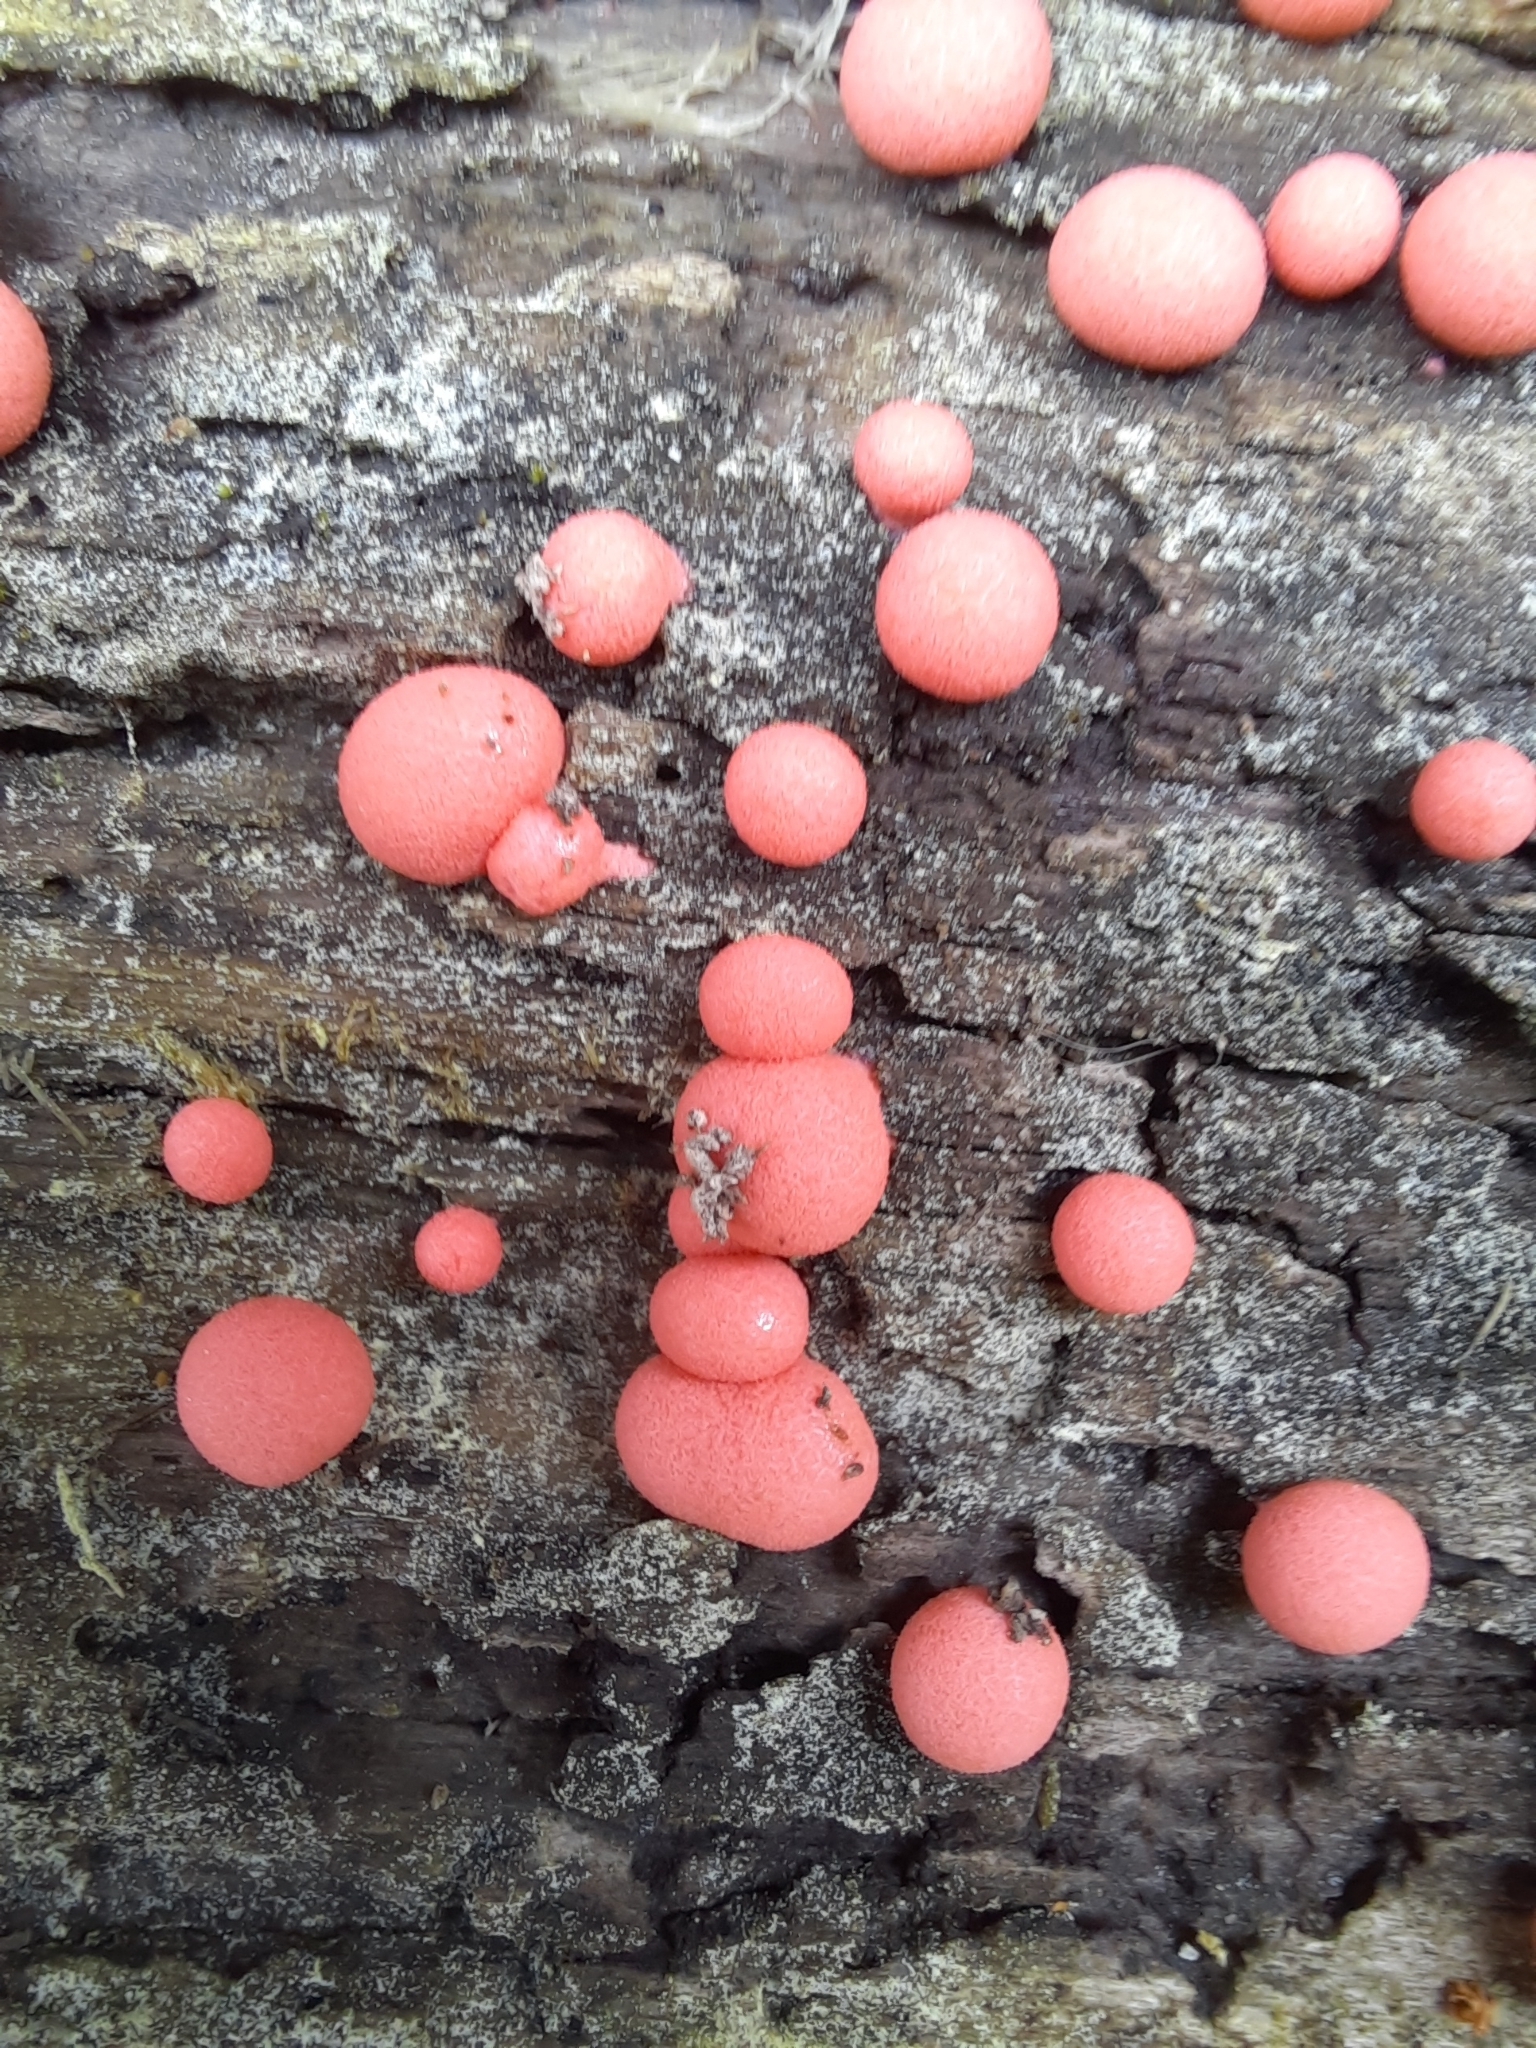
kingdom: Protozoa
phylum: Mycetozoa
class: Myxomycetes
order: Cribrariales
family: Tubiferaceae
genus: Lycogala
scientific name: Lycogala epidendrum
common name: Wolf's milk
